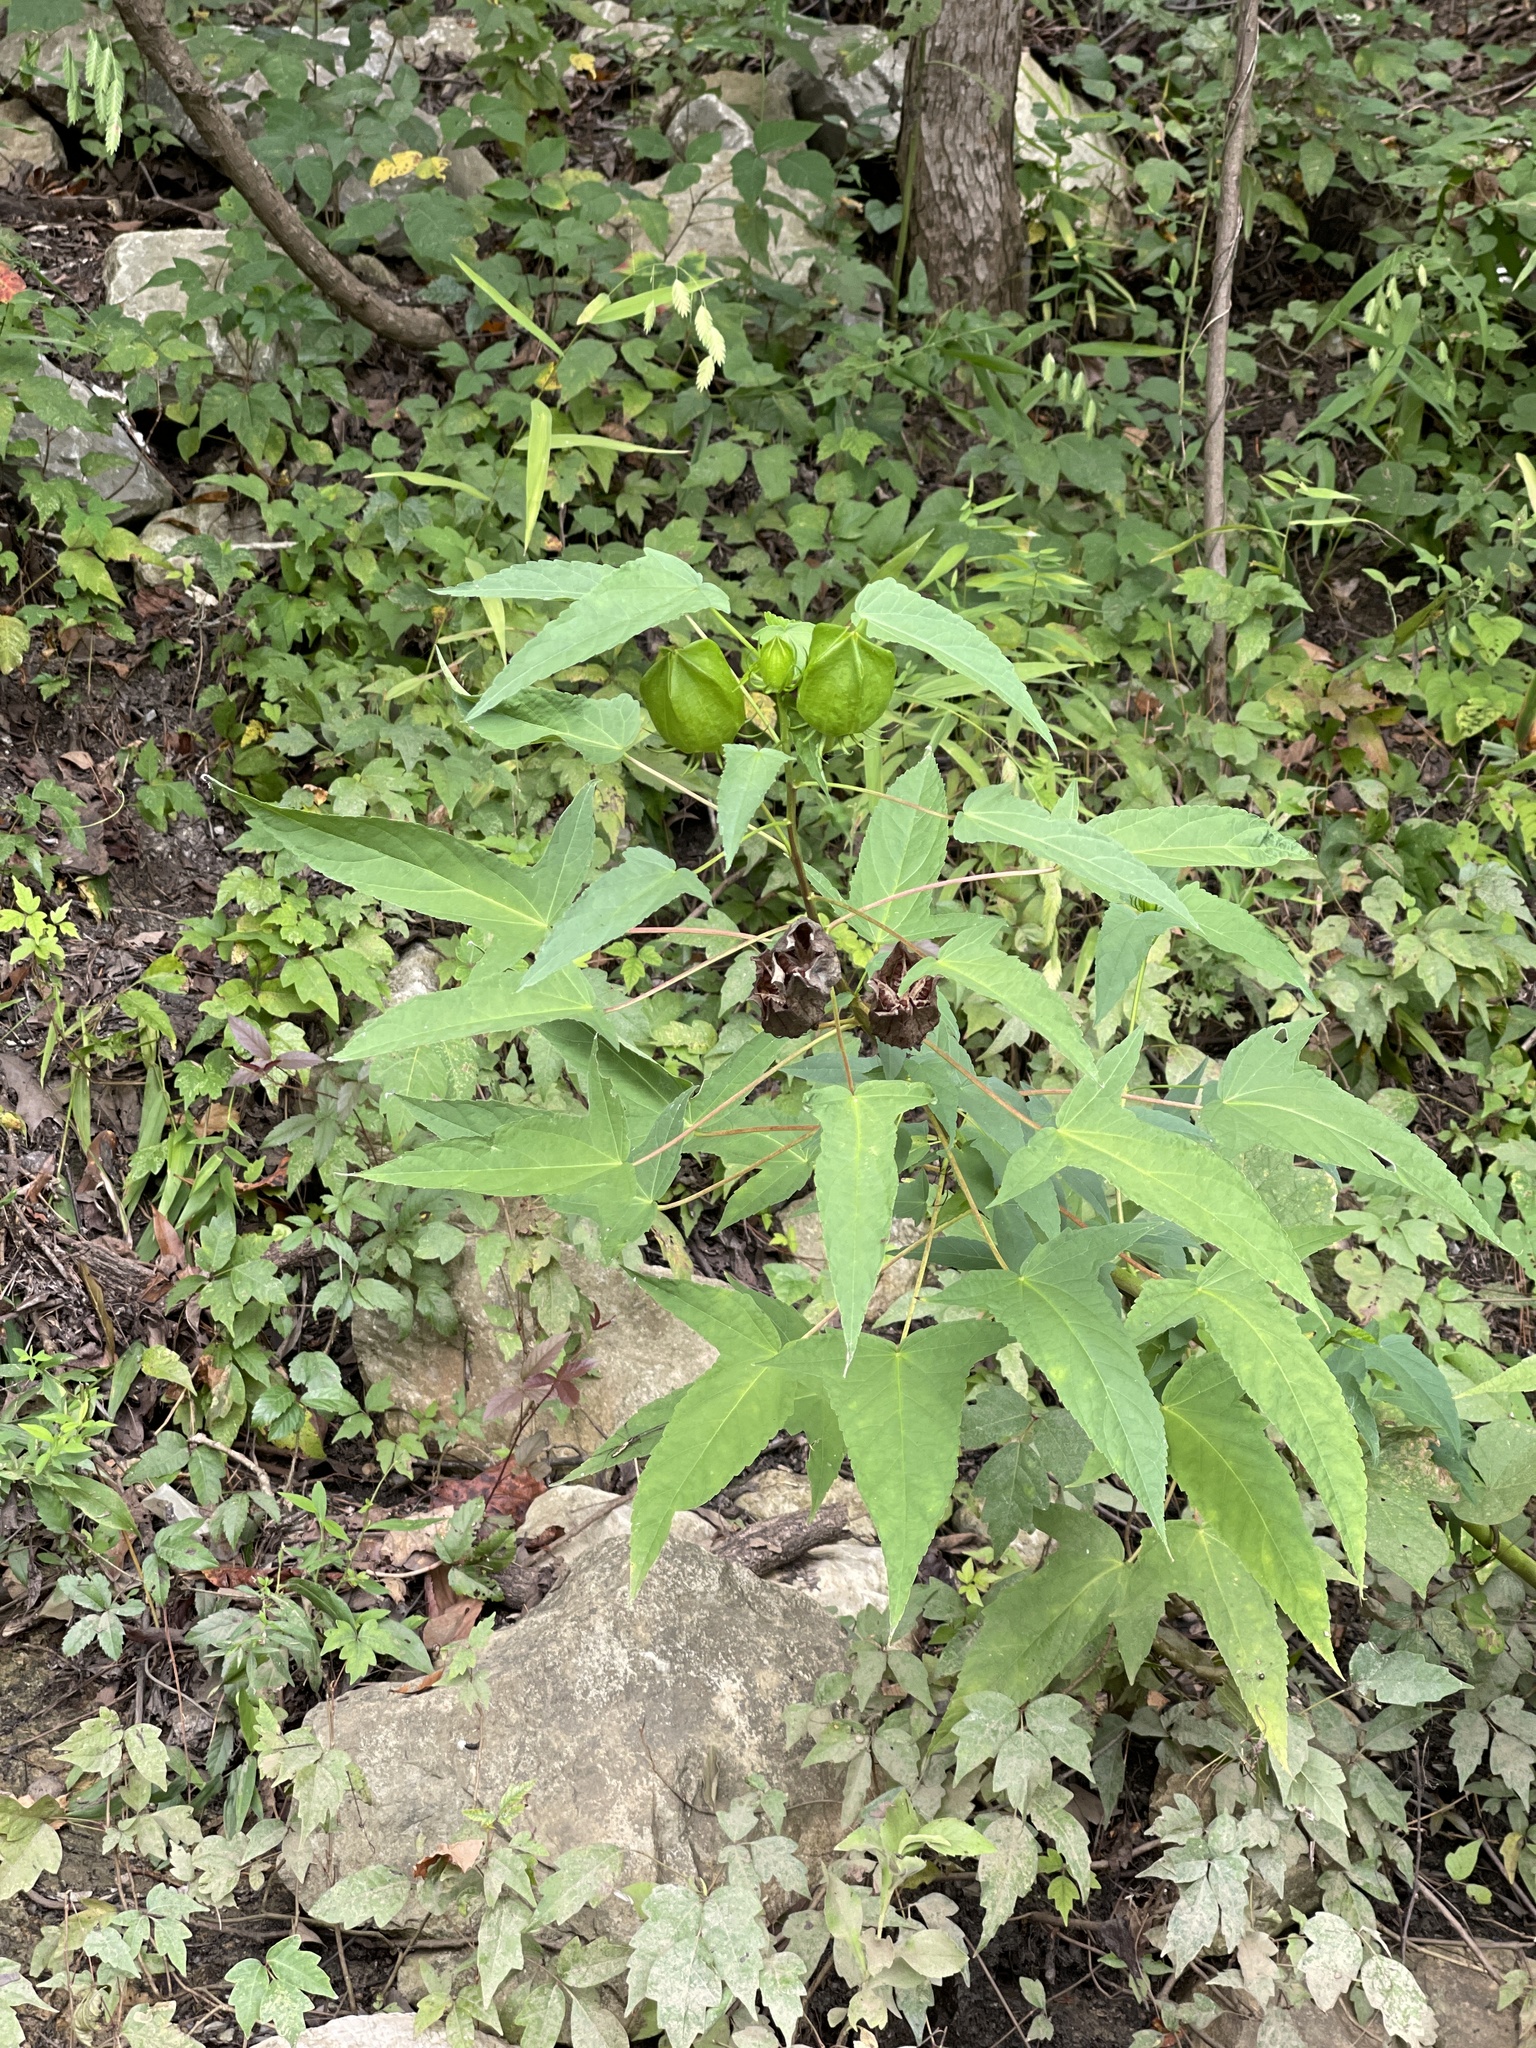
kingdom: Plantae
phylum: Tracheophyta
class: Magnoliopsida
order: Malvales
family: Malvaceae
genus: Hibiscus
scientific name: Hibiscus laevis
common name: Scarlet rose-mallow
